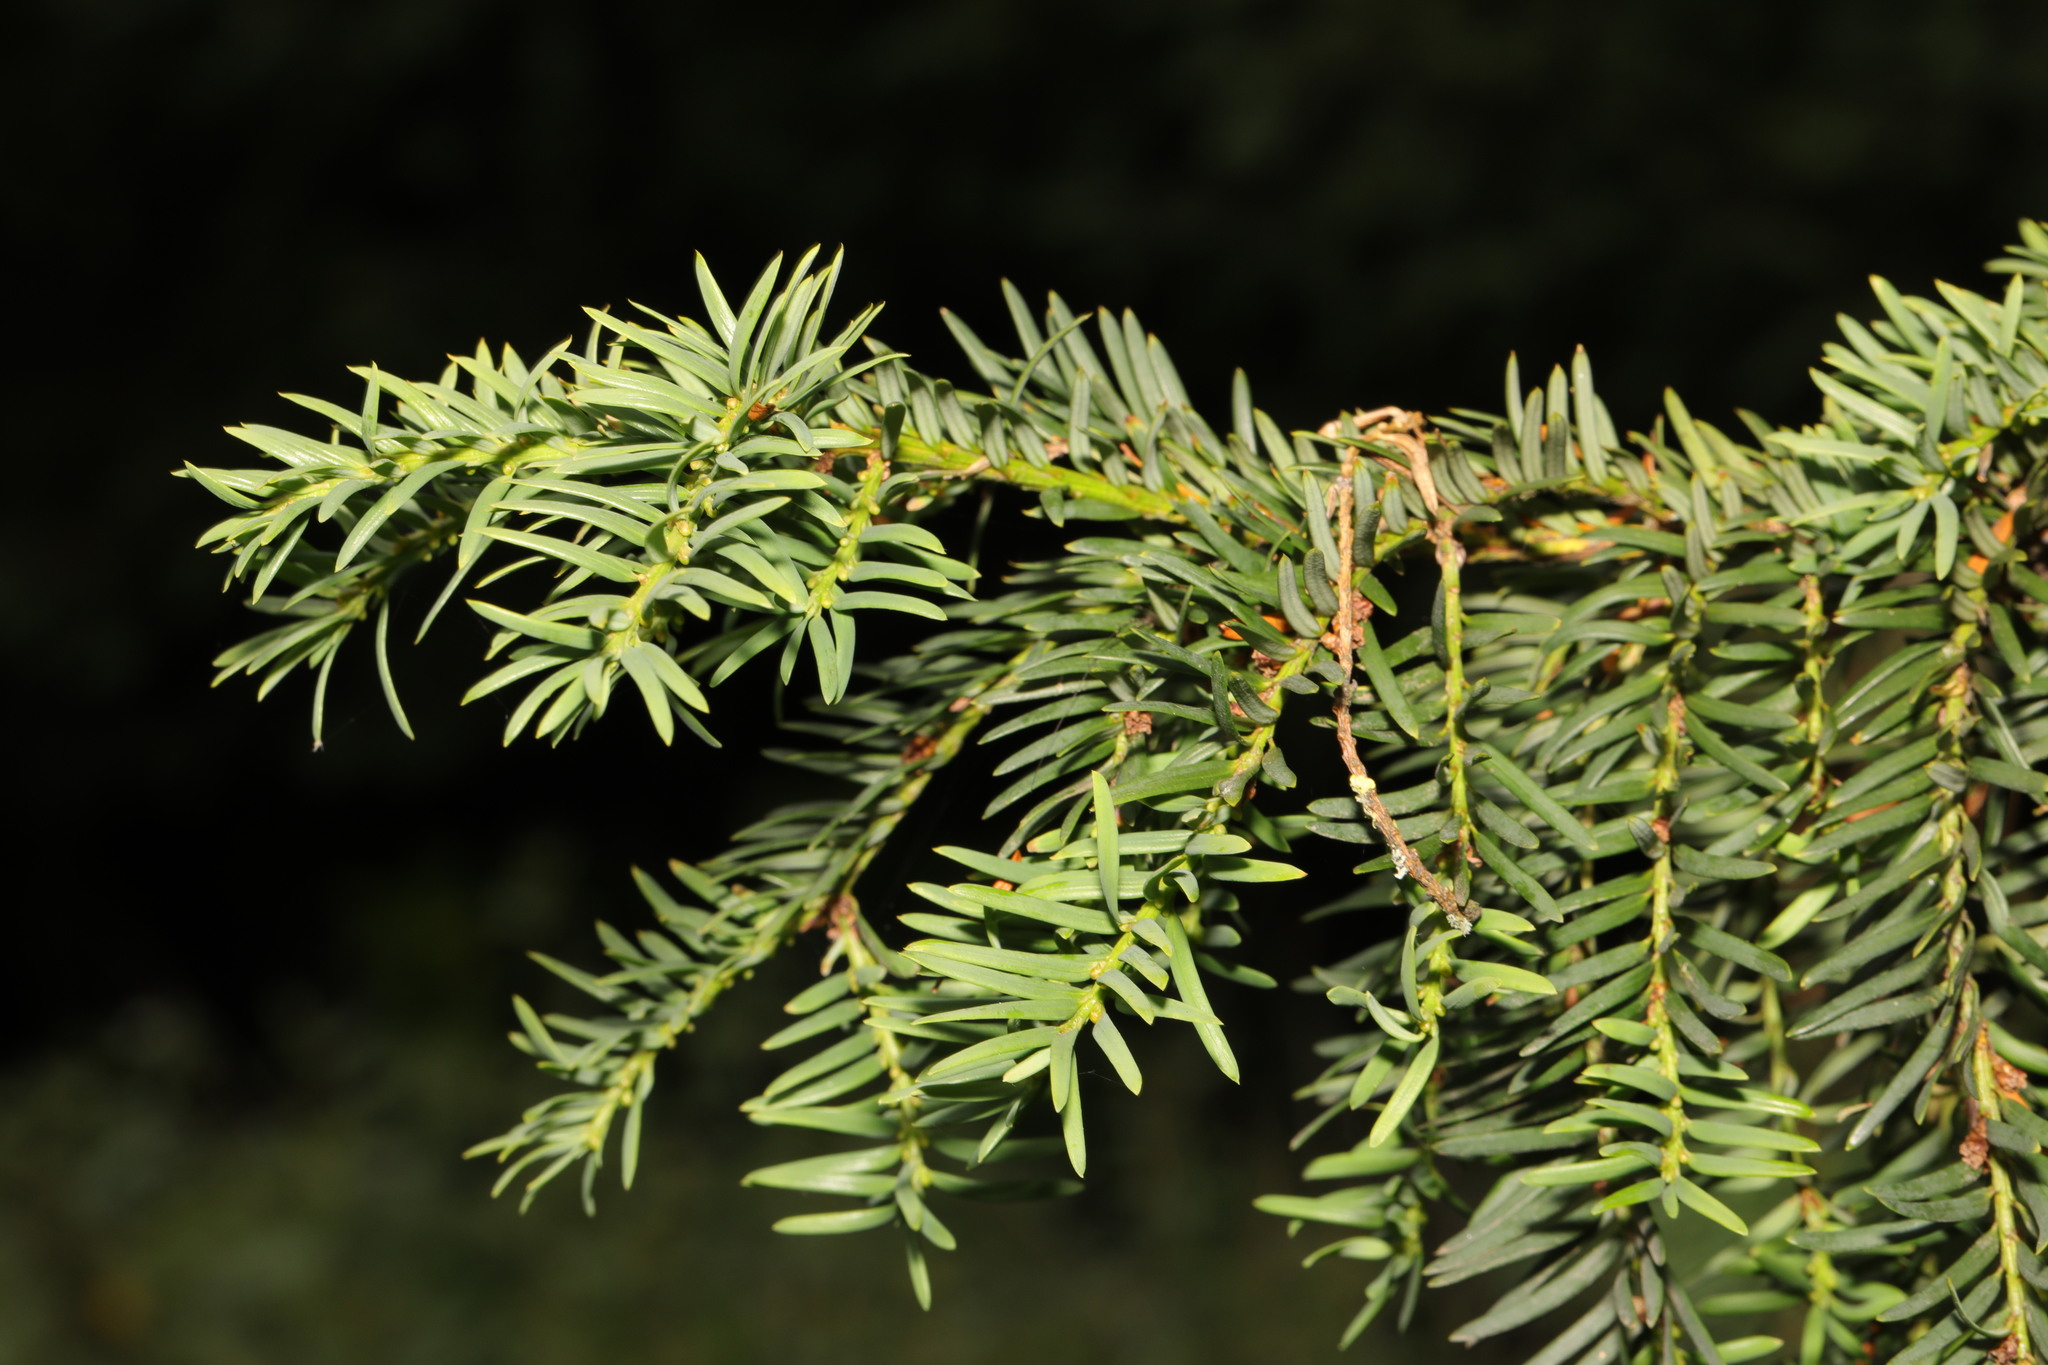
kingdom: Plantae
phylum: Tracheophyta
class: Pinopsida
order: Pinales
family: Taxaceae
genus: Taxus
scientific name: Taxus baccata
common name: Yew
